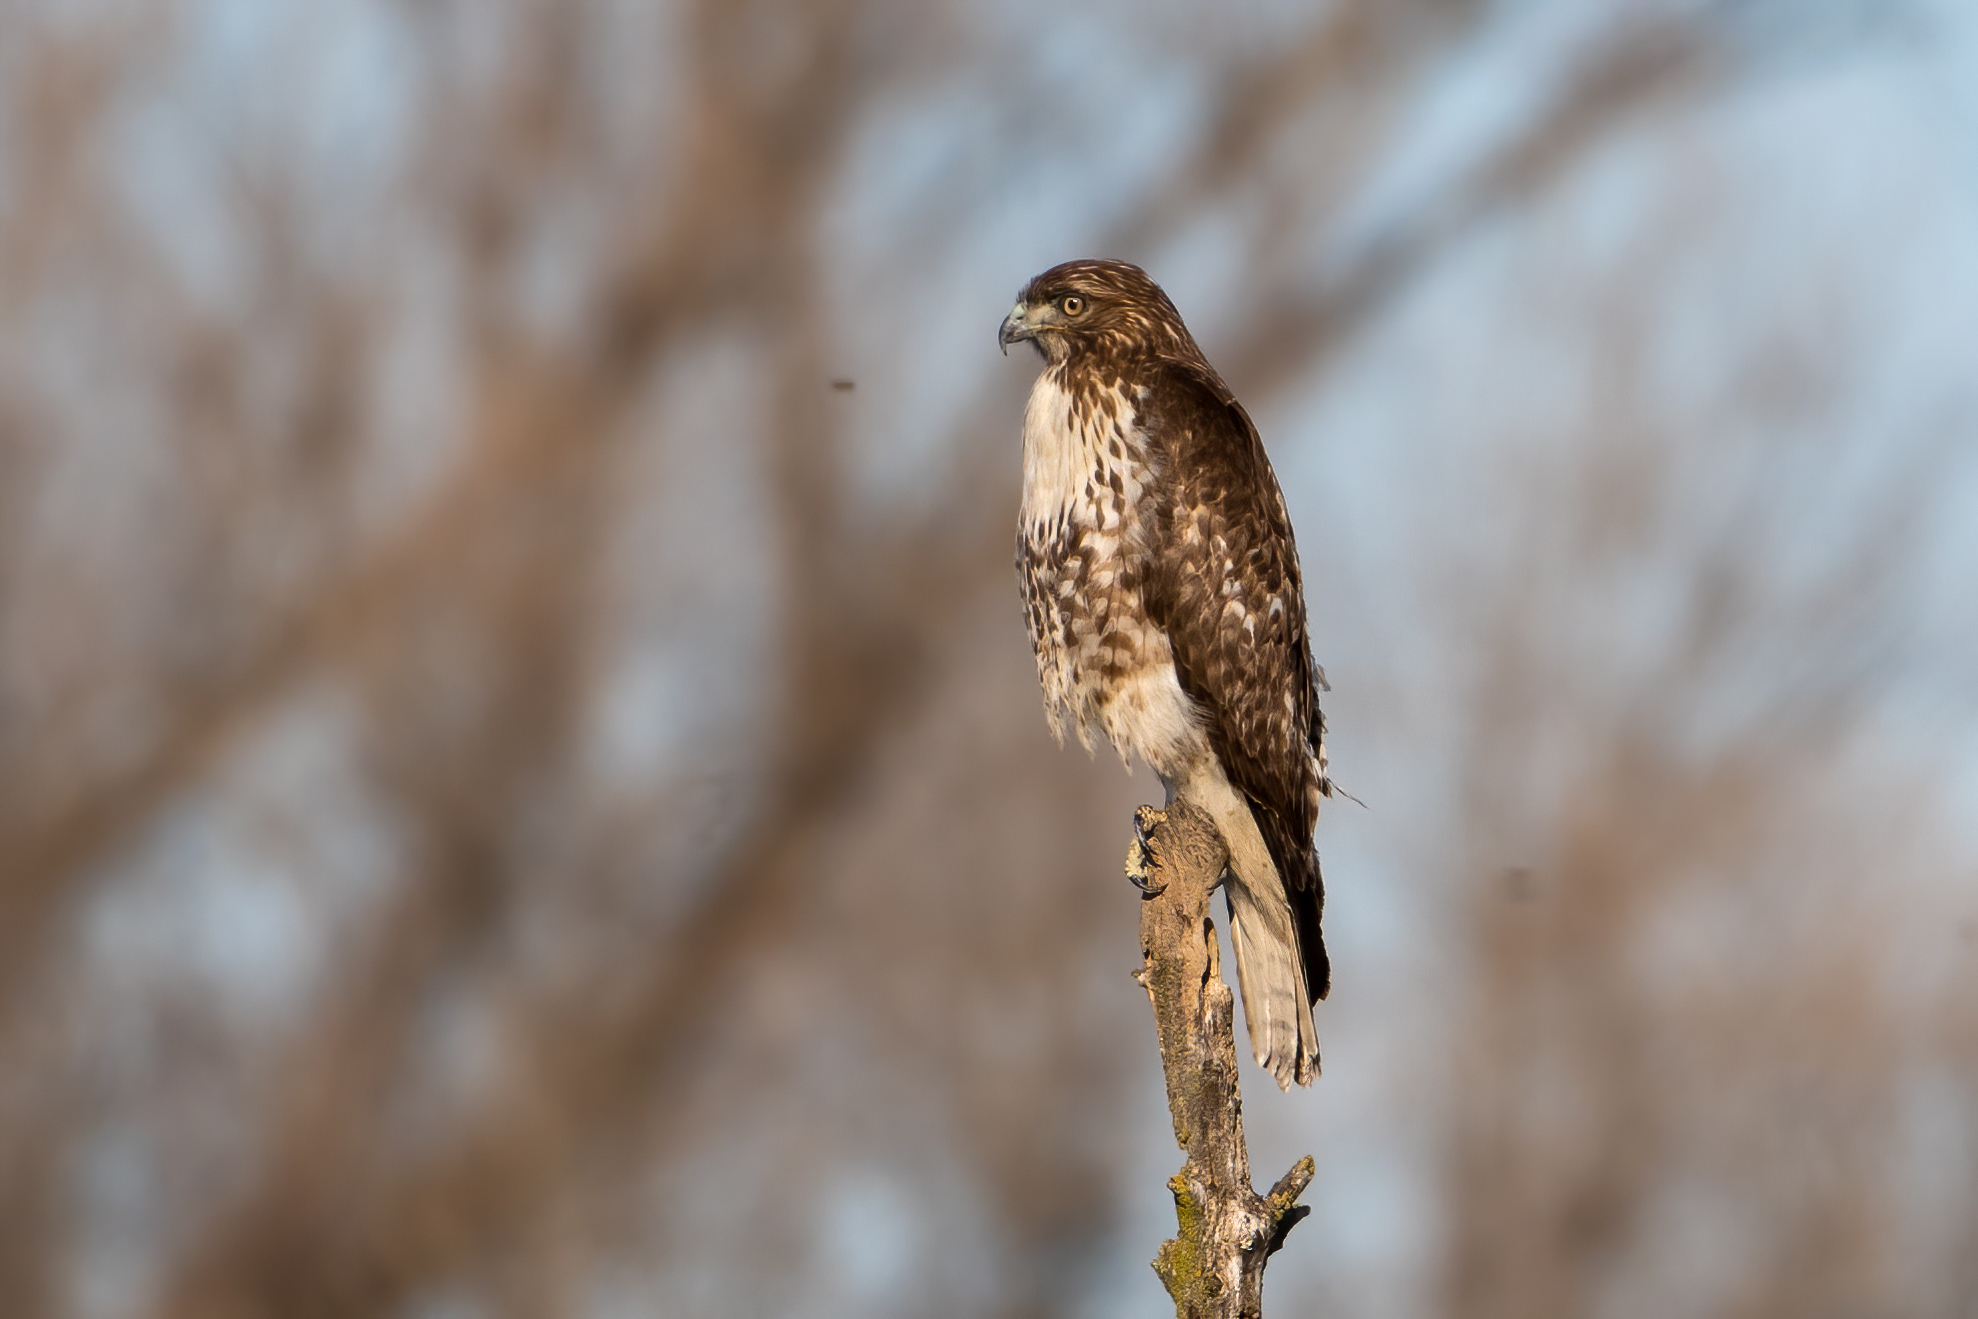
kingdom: Animalia
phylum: Chordata
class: Aves
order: Accipitriformes
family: Accipitridae
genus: Buteo
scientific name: Buteo jamaicensis
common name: Red-tailed hawk
